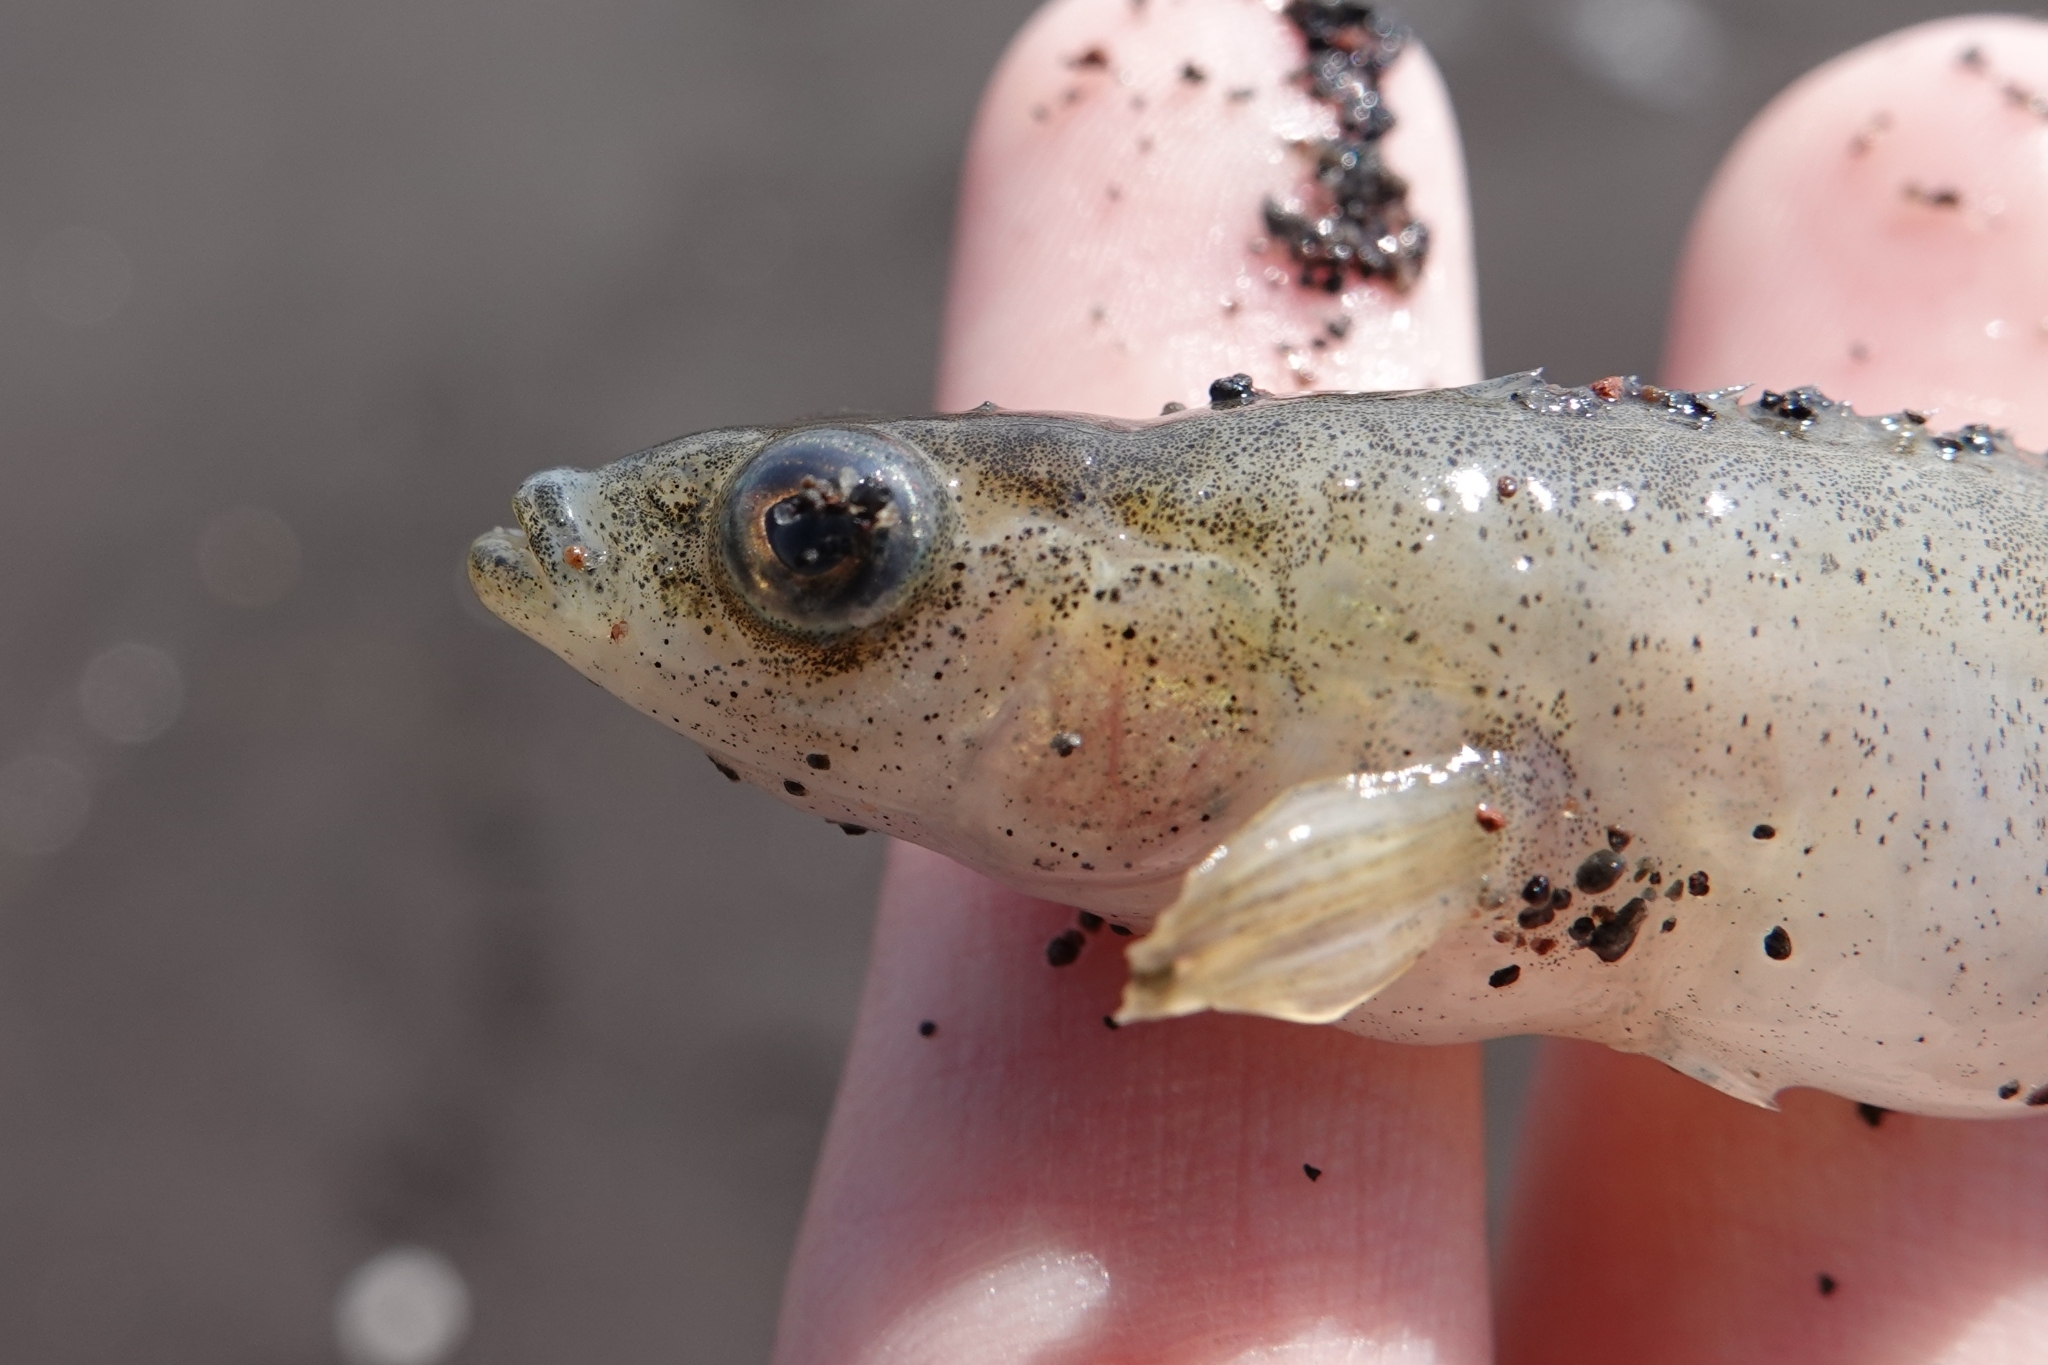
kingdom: Animalia
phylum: Chordata
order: Gasterosteiformes
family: Gasterosteidae
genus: Pungitius
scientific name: Pungitius pungitius
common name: Nine-spined stickleback
